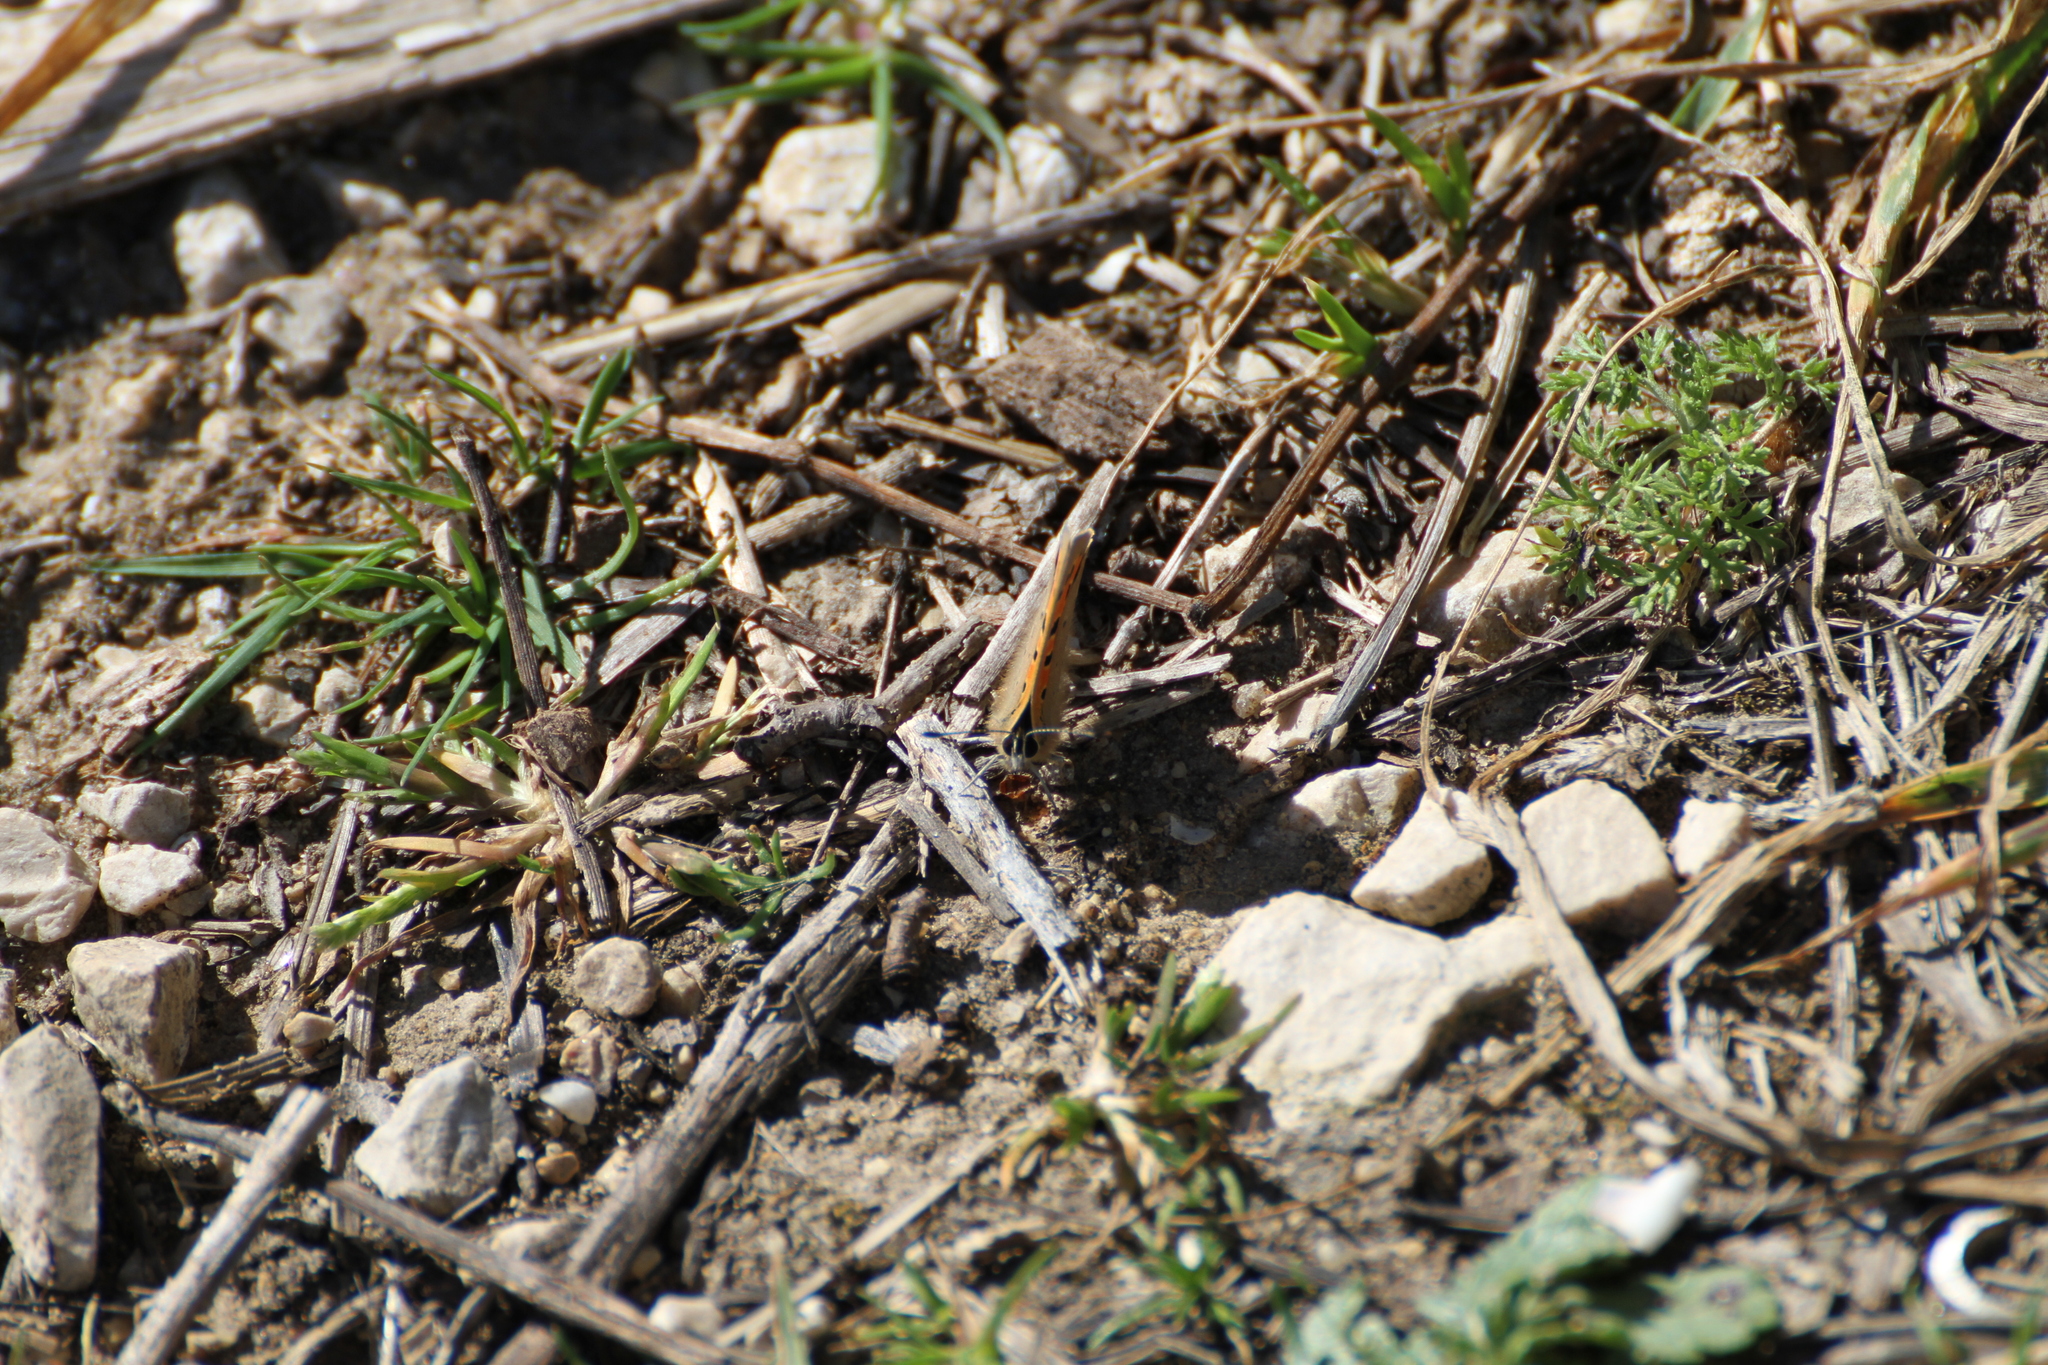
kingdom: Animalia
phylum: Arthropoda
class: Insecta
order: Lepidoptera
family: Lycaenidae
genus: Lycaena
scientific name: Lycaena phlaeas
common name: Small copper
